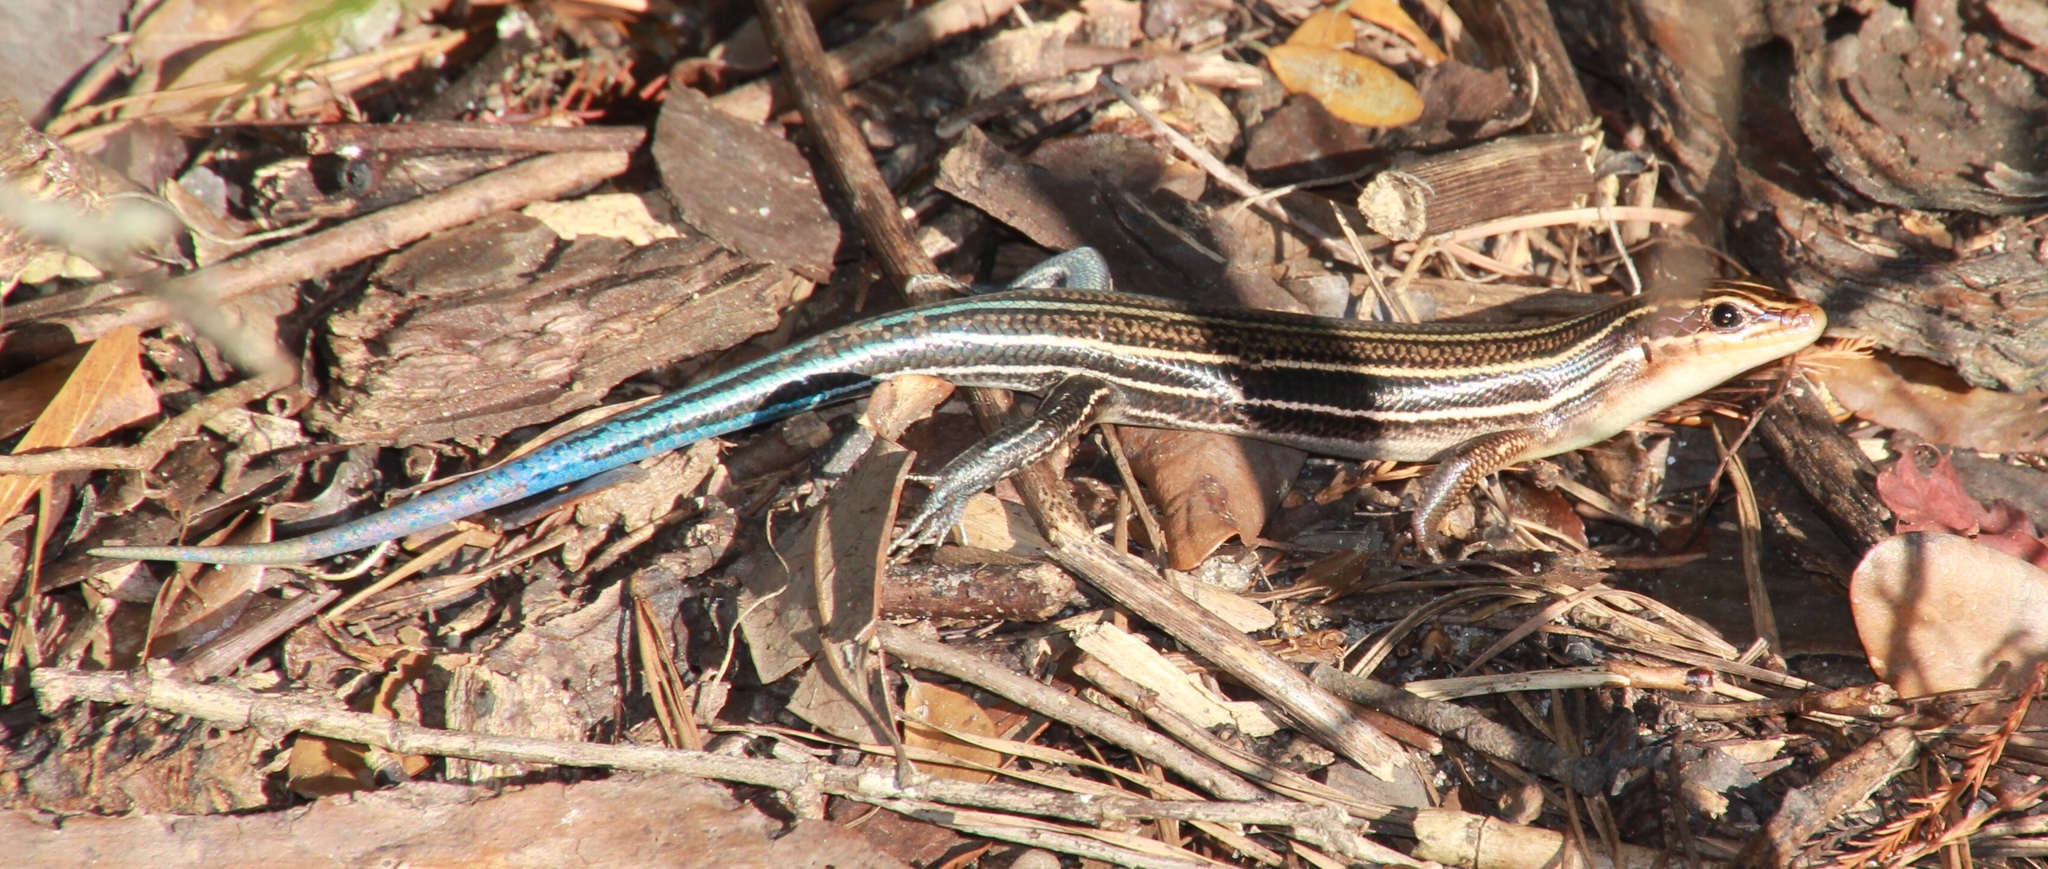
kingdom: Animalia
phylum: Chordata
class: Squamata
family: Scincidae
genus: Plestiodon
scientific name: Plestiodon laticeps
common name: Broadhead skink
